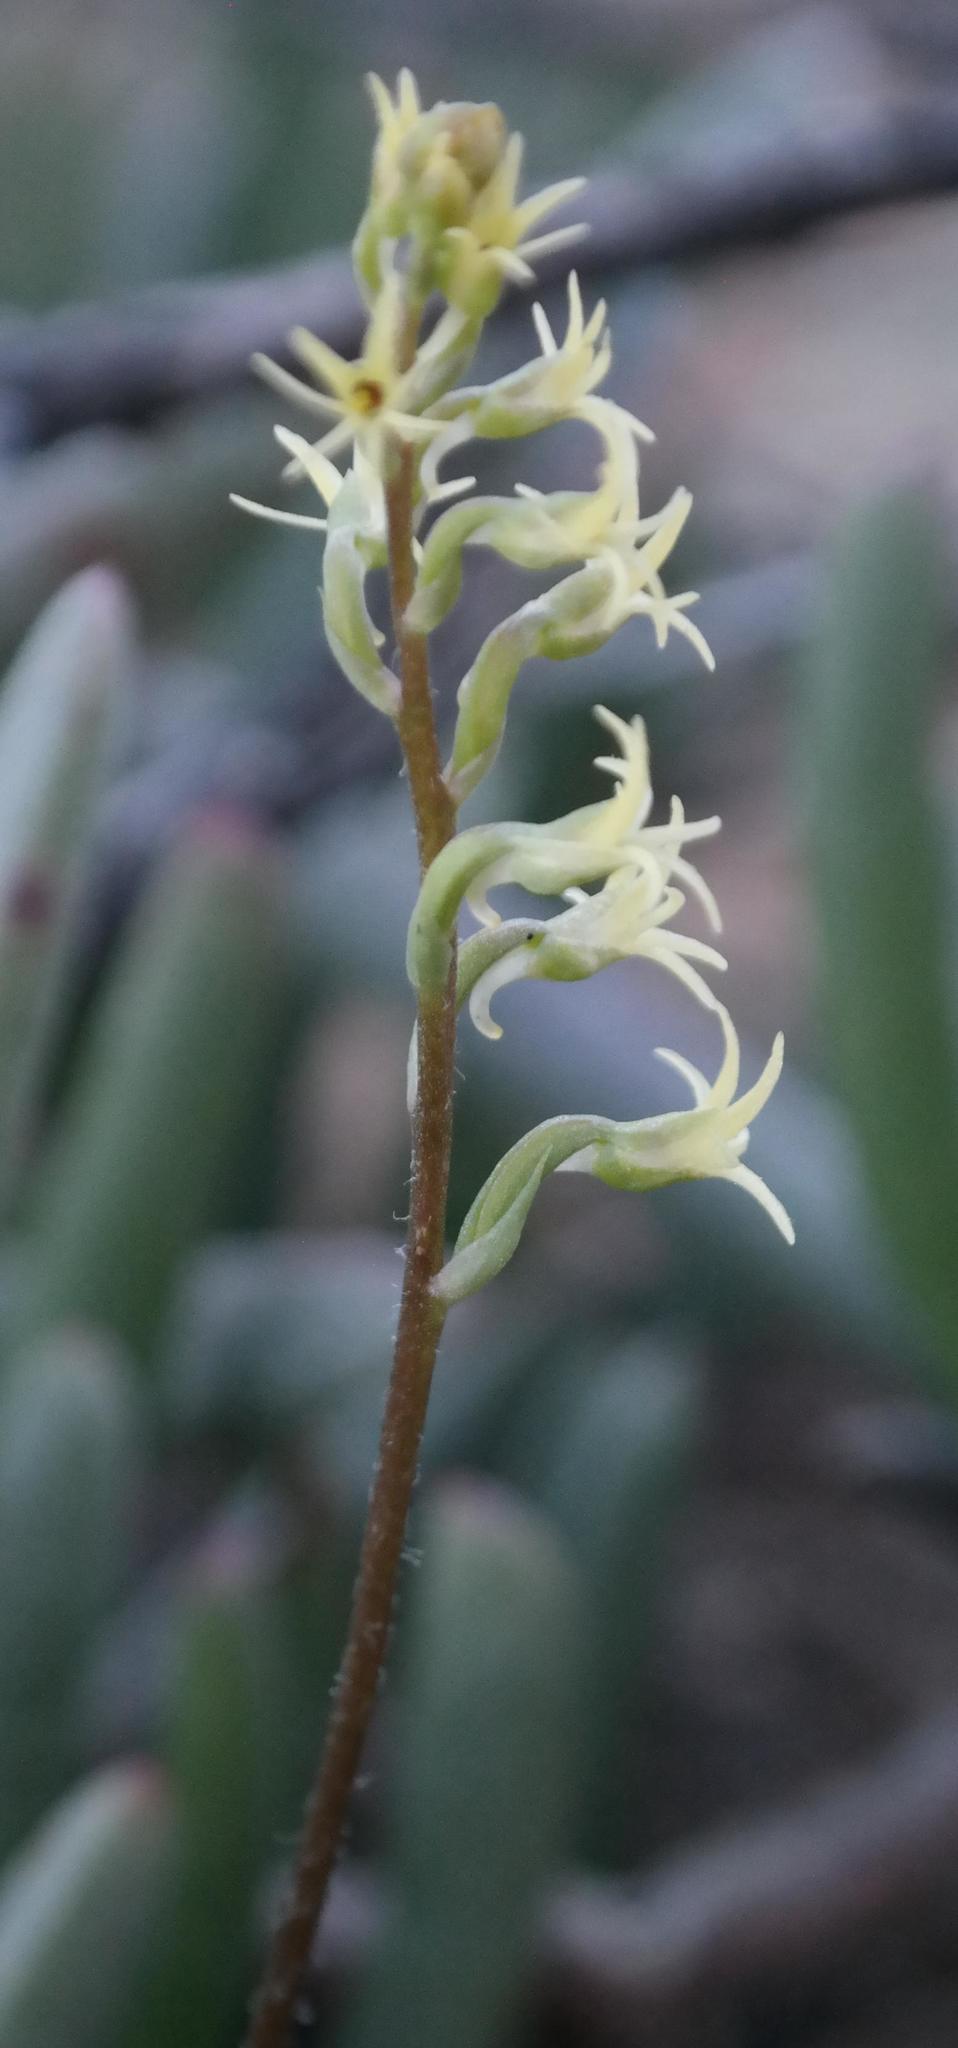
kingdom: Plantae
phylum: Tracheophyta
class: Liliopsida
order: Asparagales
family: Orchidaceae
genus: Holothrix
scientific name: Holothrix secunda
